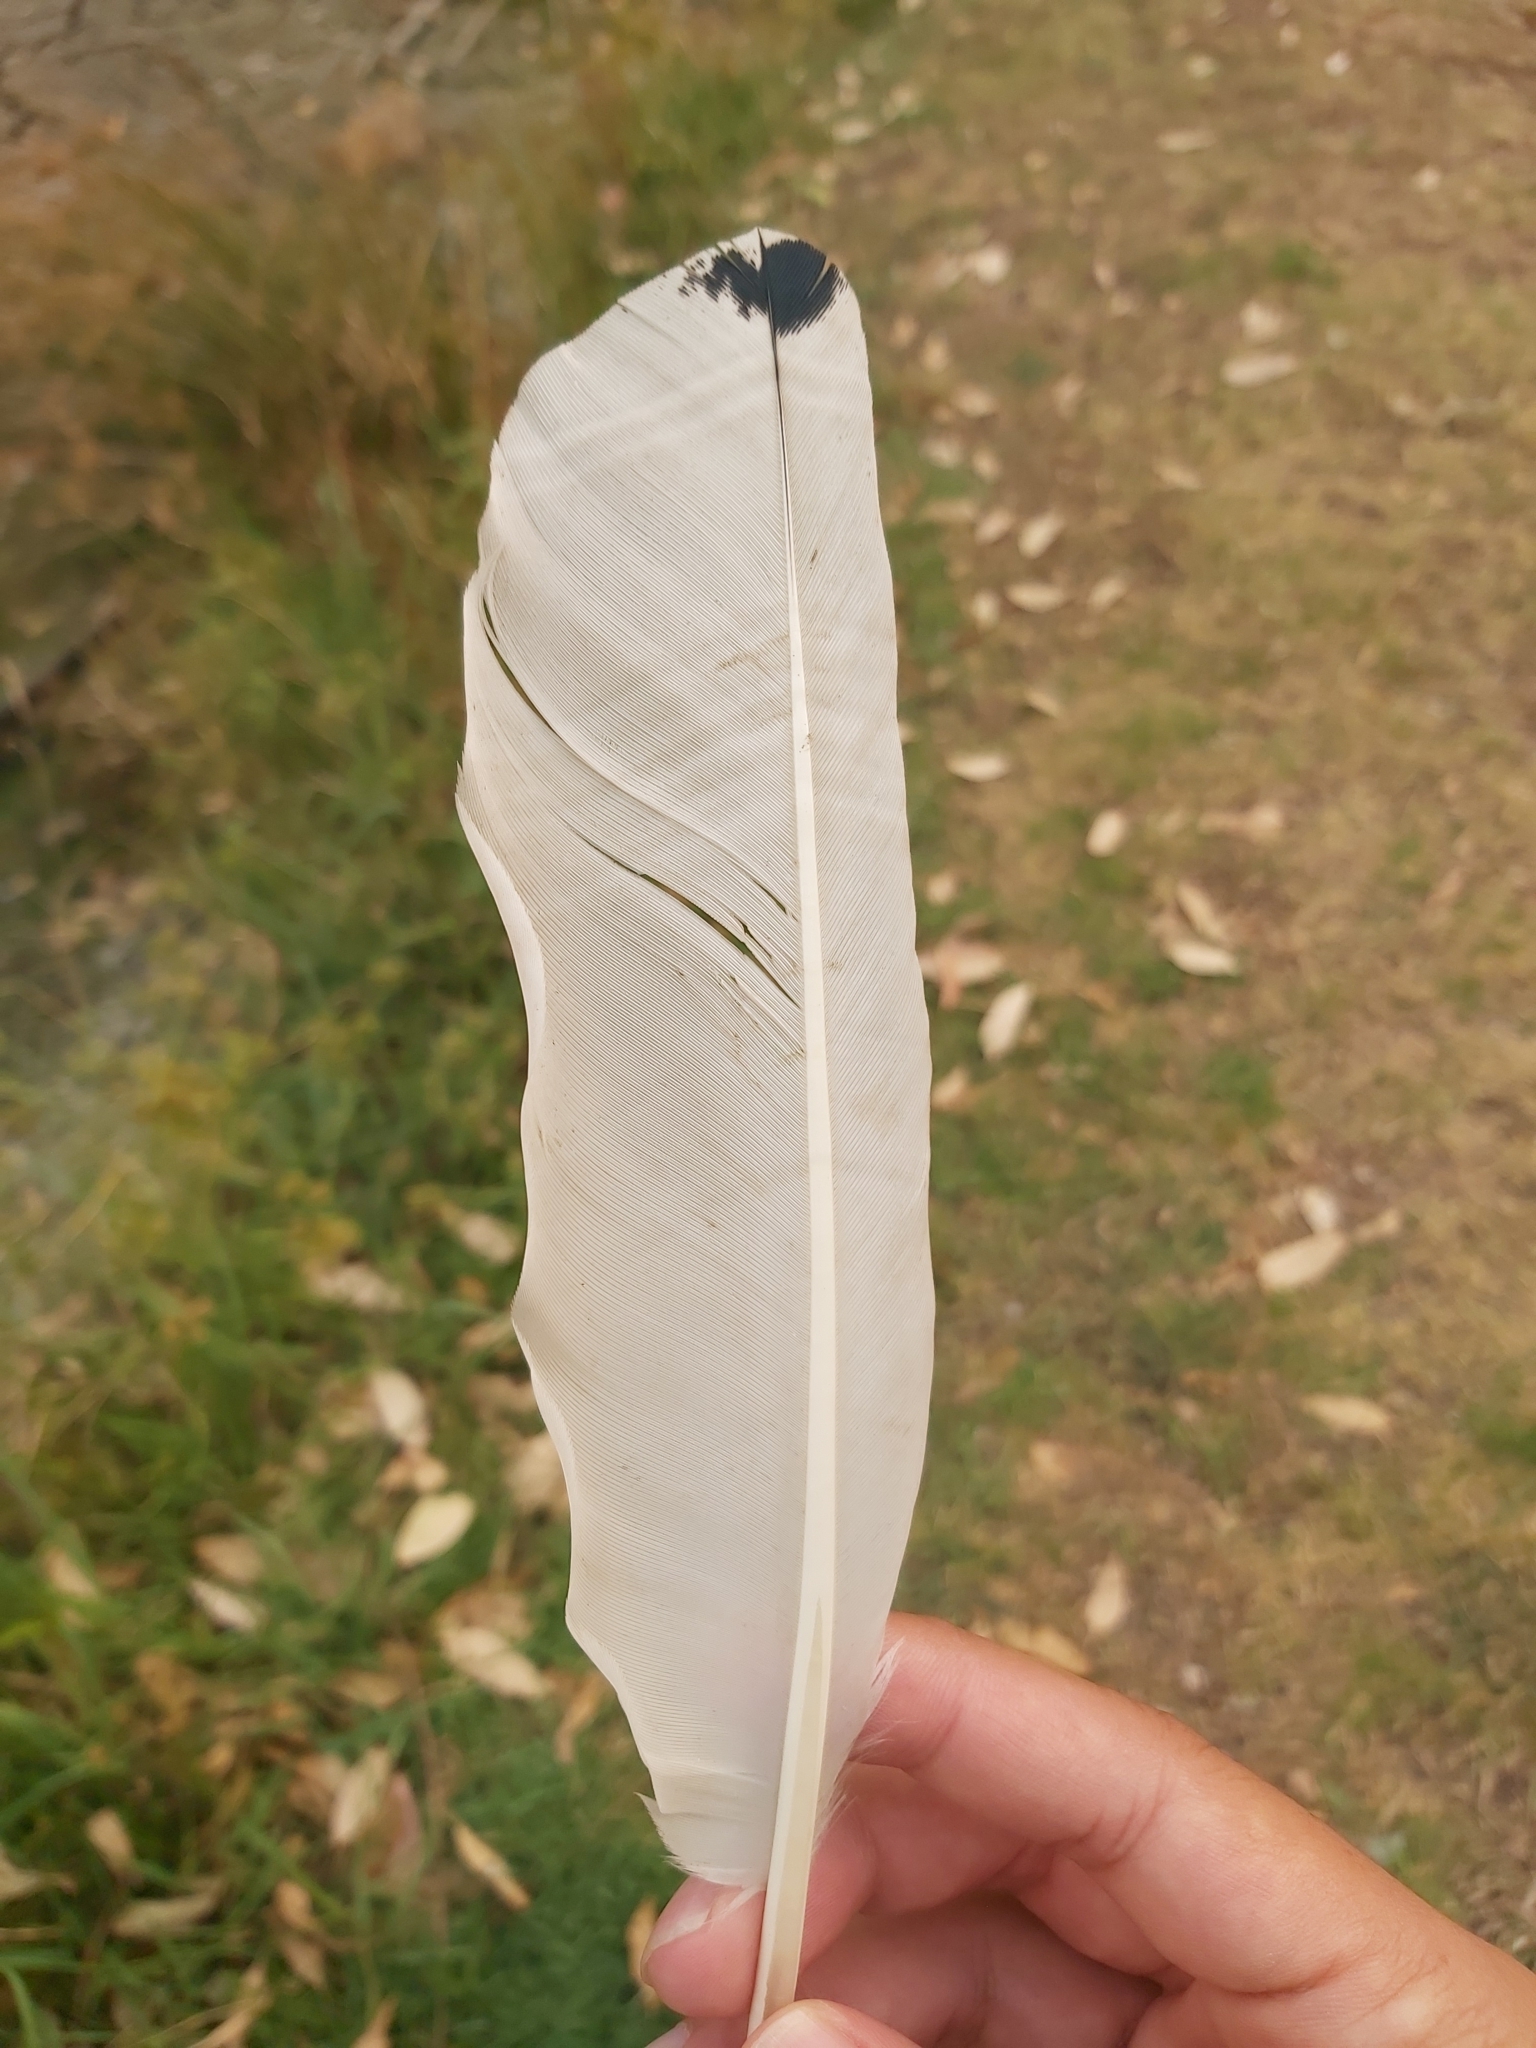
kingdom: Animalia
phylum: Chordata
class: Aves
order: Pelecaniformes
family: Threskiornithidae
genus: Threskiornis
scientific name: Threskiornis molucca
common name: Australian white ibis
